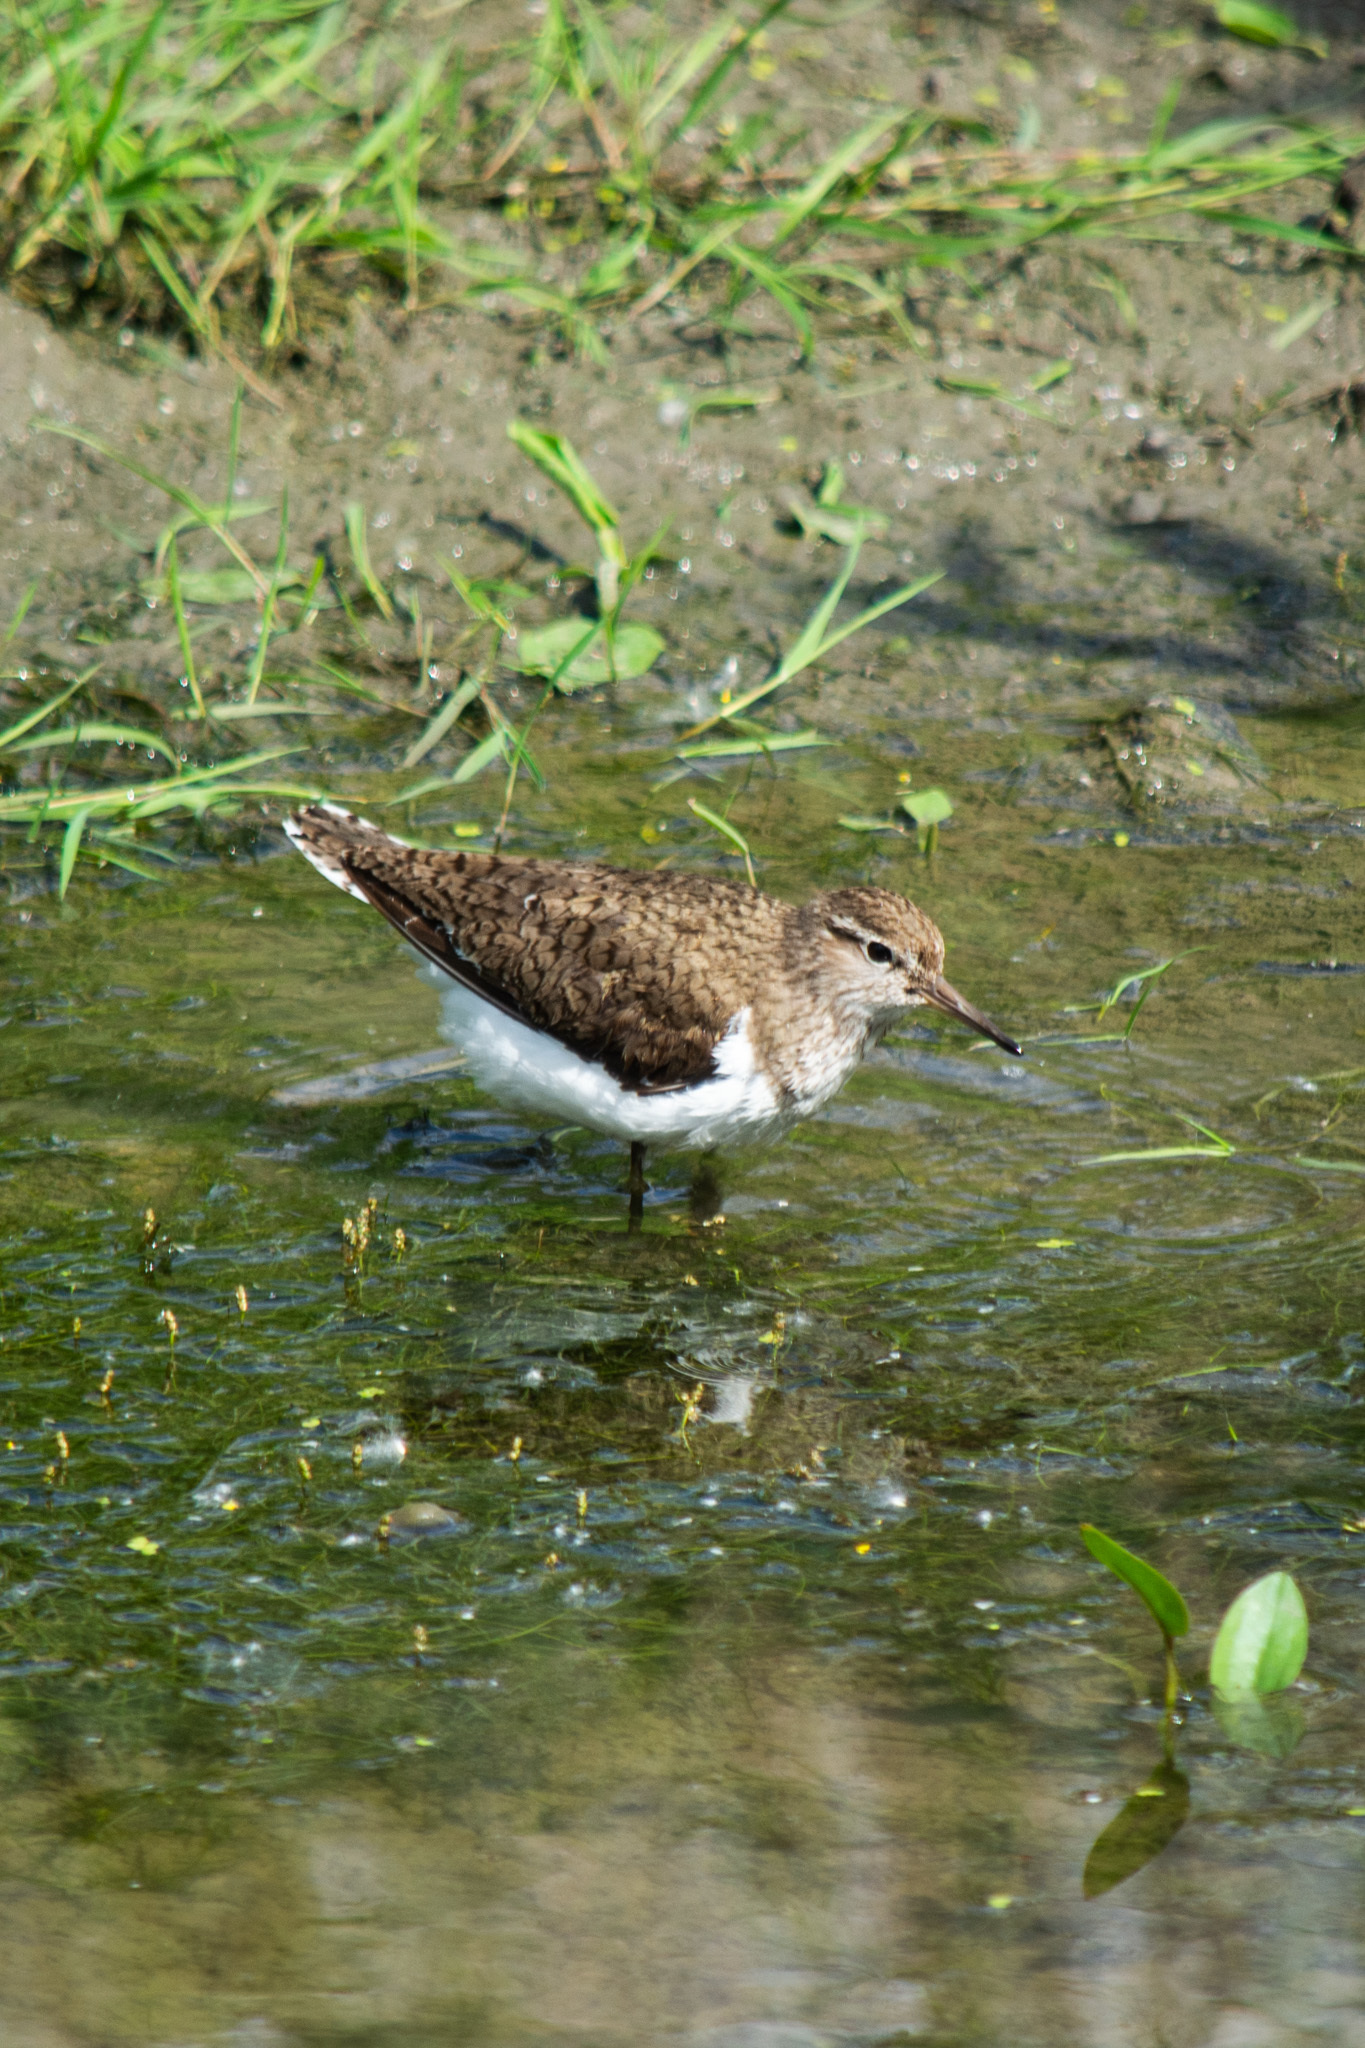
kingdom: Animalia
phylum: Chordata
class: Aves
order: Charadriiformes
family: Scolopacidae
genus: Actitis
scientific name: Actitis hypoleucos
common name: Common sandpiper
